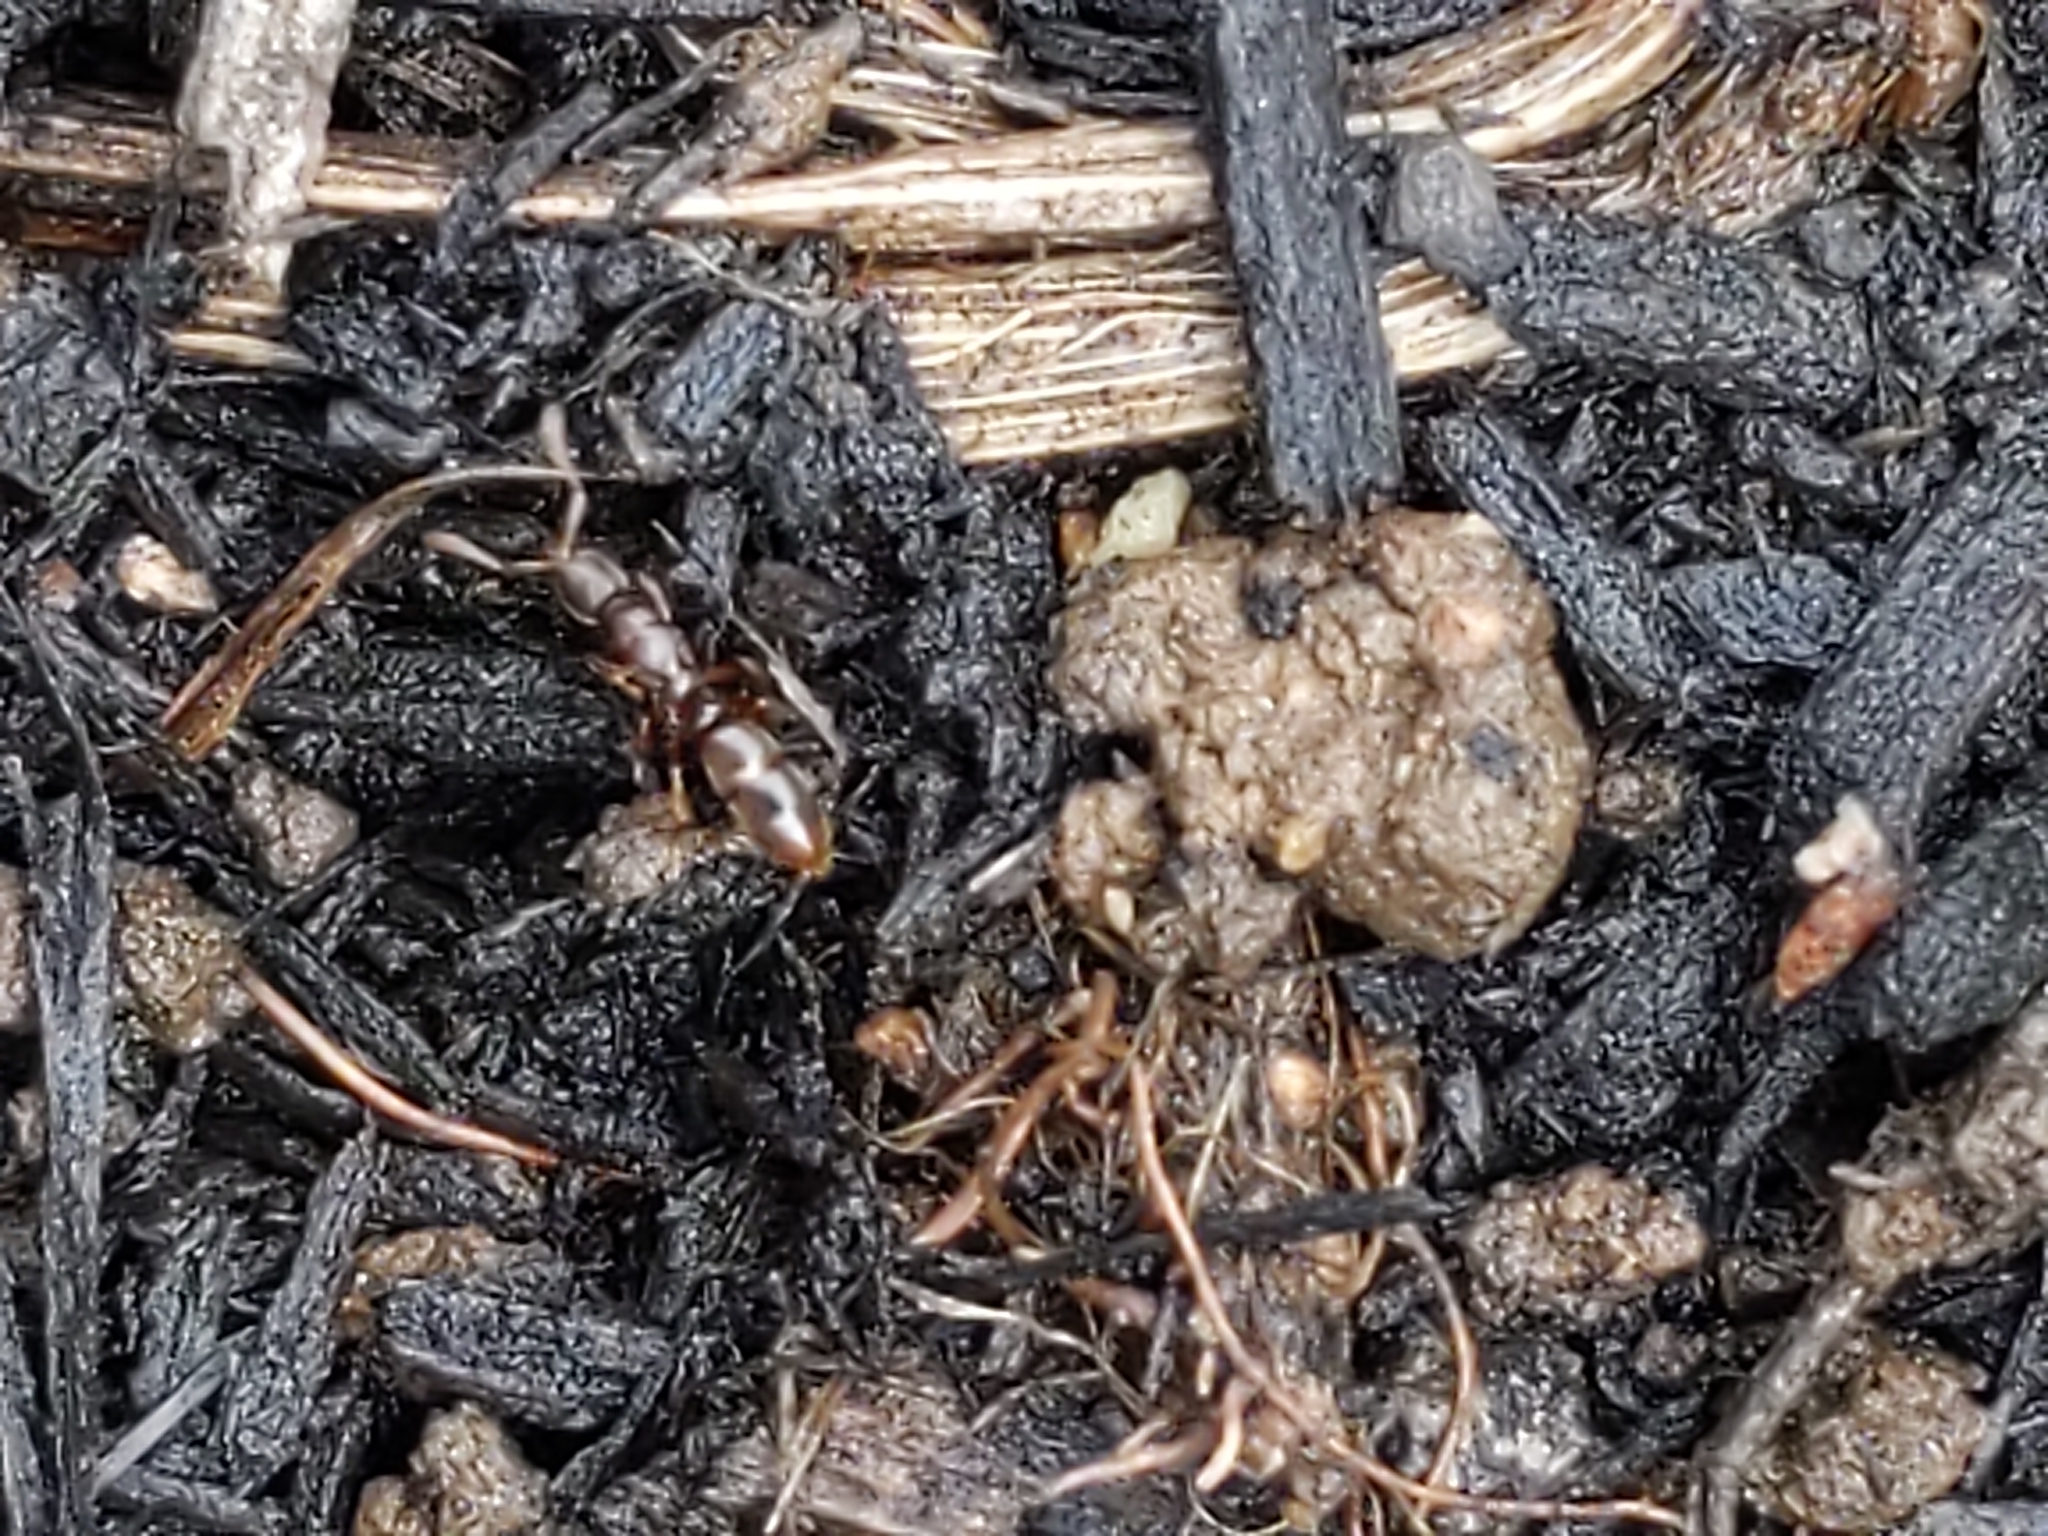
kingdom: Animalia
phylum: Arthropoda
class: Insecta
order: Hymenoptera
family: Formicidae
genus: Ponera
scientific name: Ponera pennsylvanica
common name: Pennsylvania ponera
